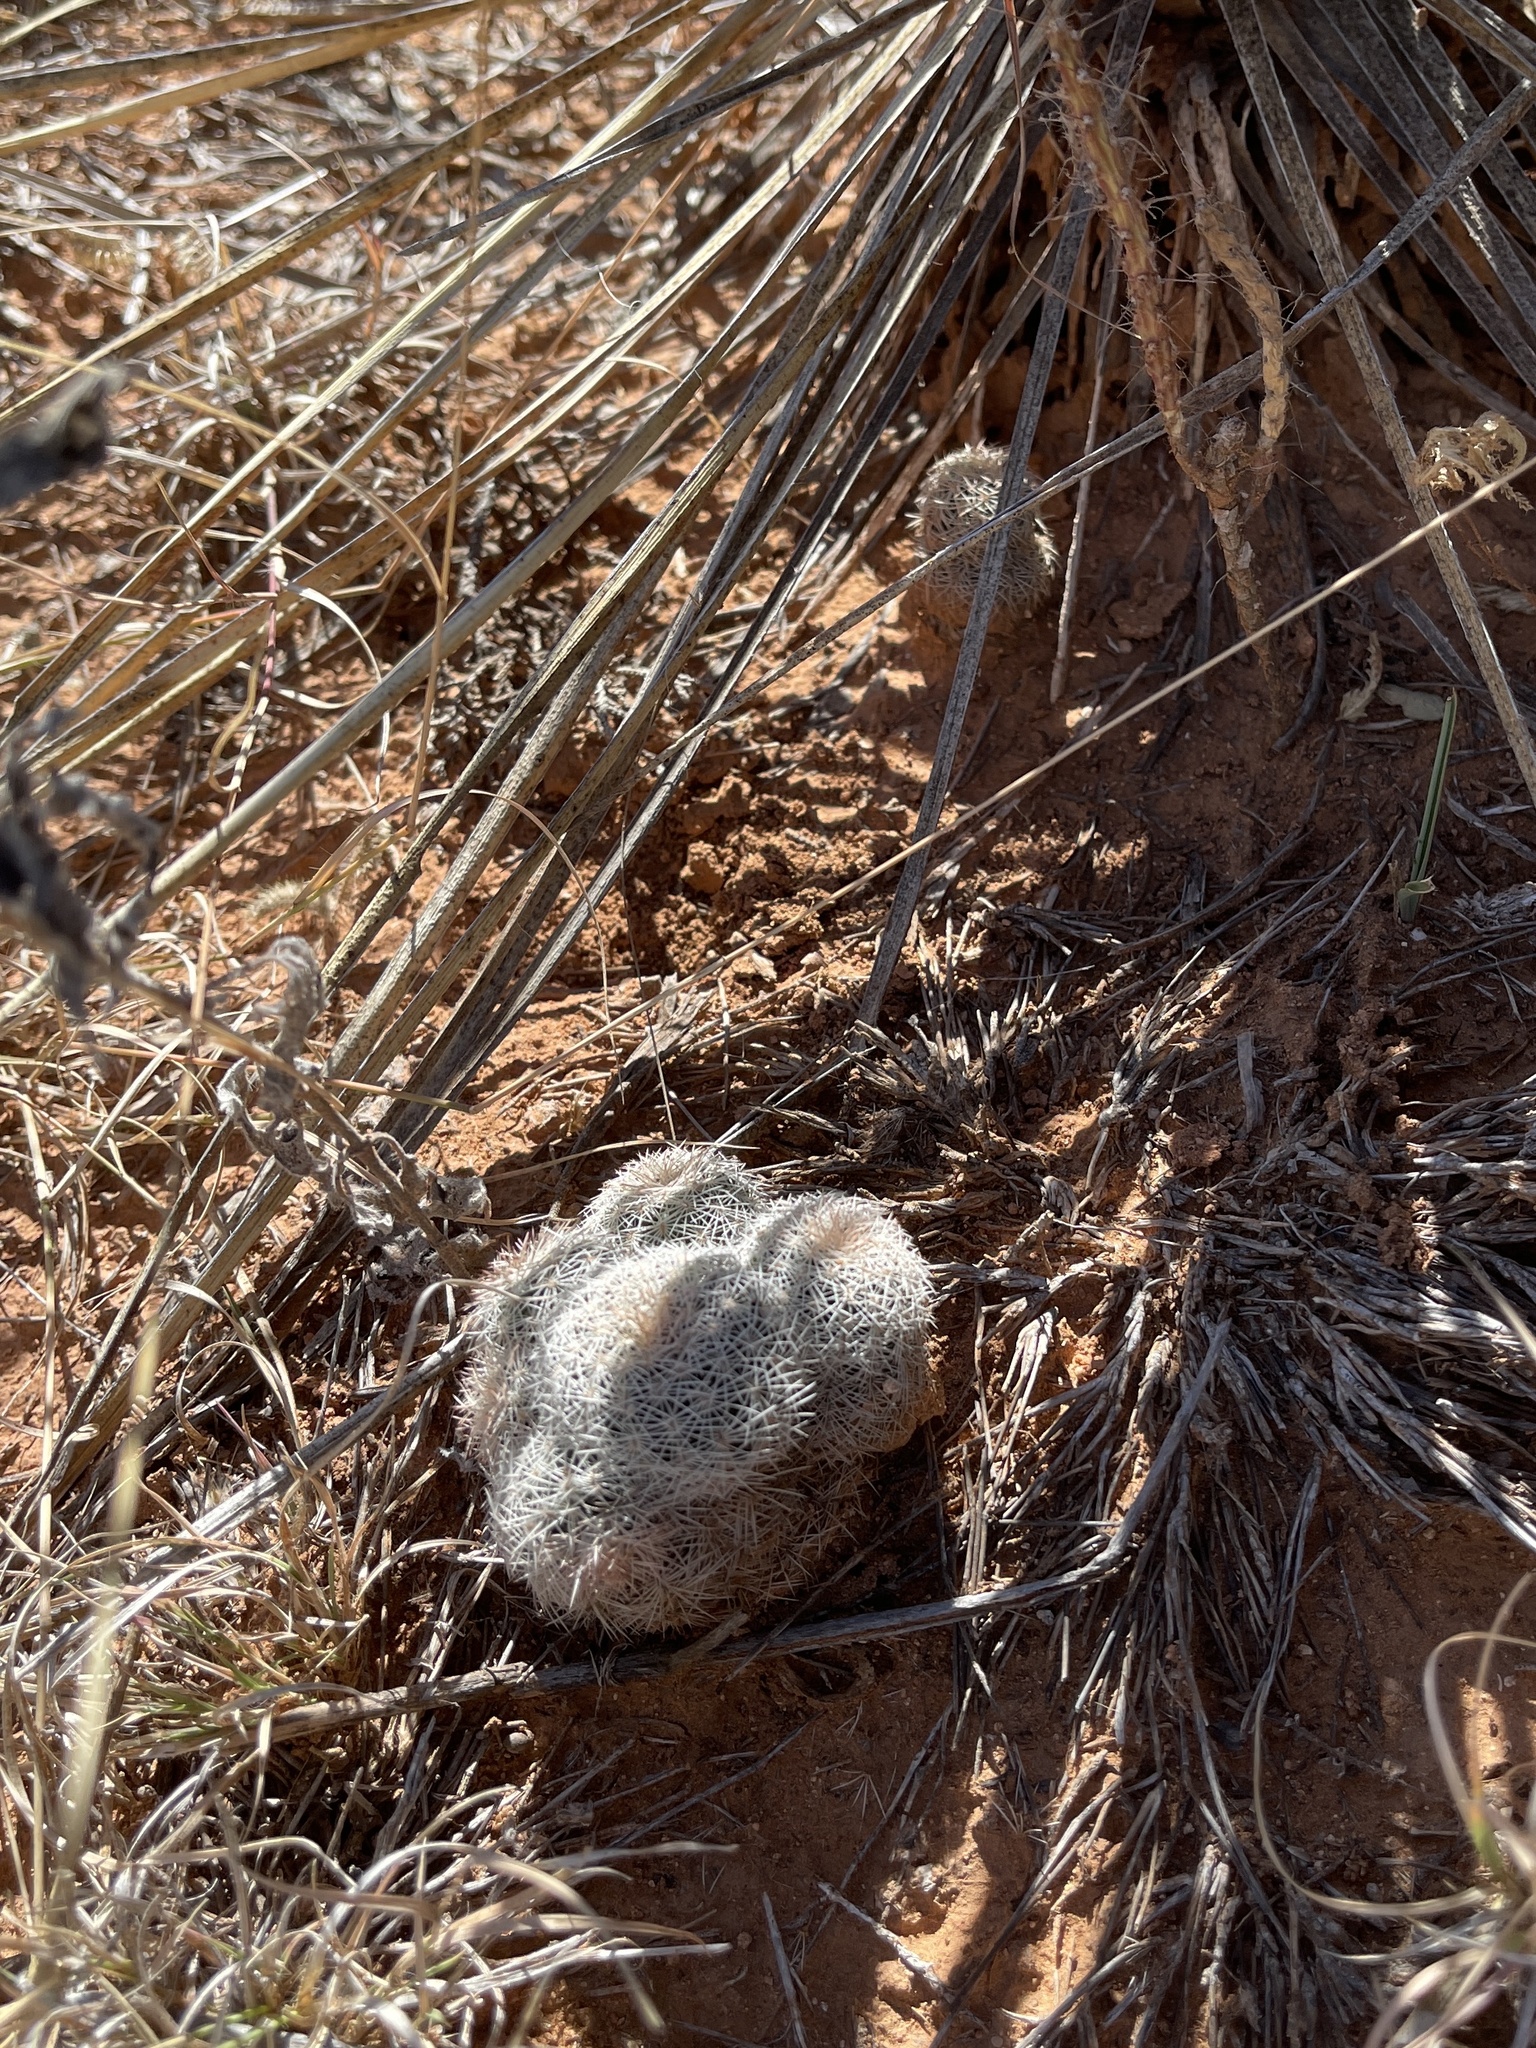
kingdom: Plantae
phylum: Tracheophyta
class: Magnoliopsida
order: Caryophyllales
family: Cactaceae
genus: Echinocereus
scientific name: Echinocereus reichenbachii
